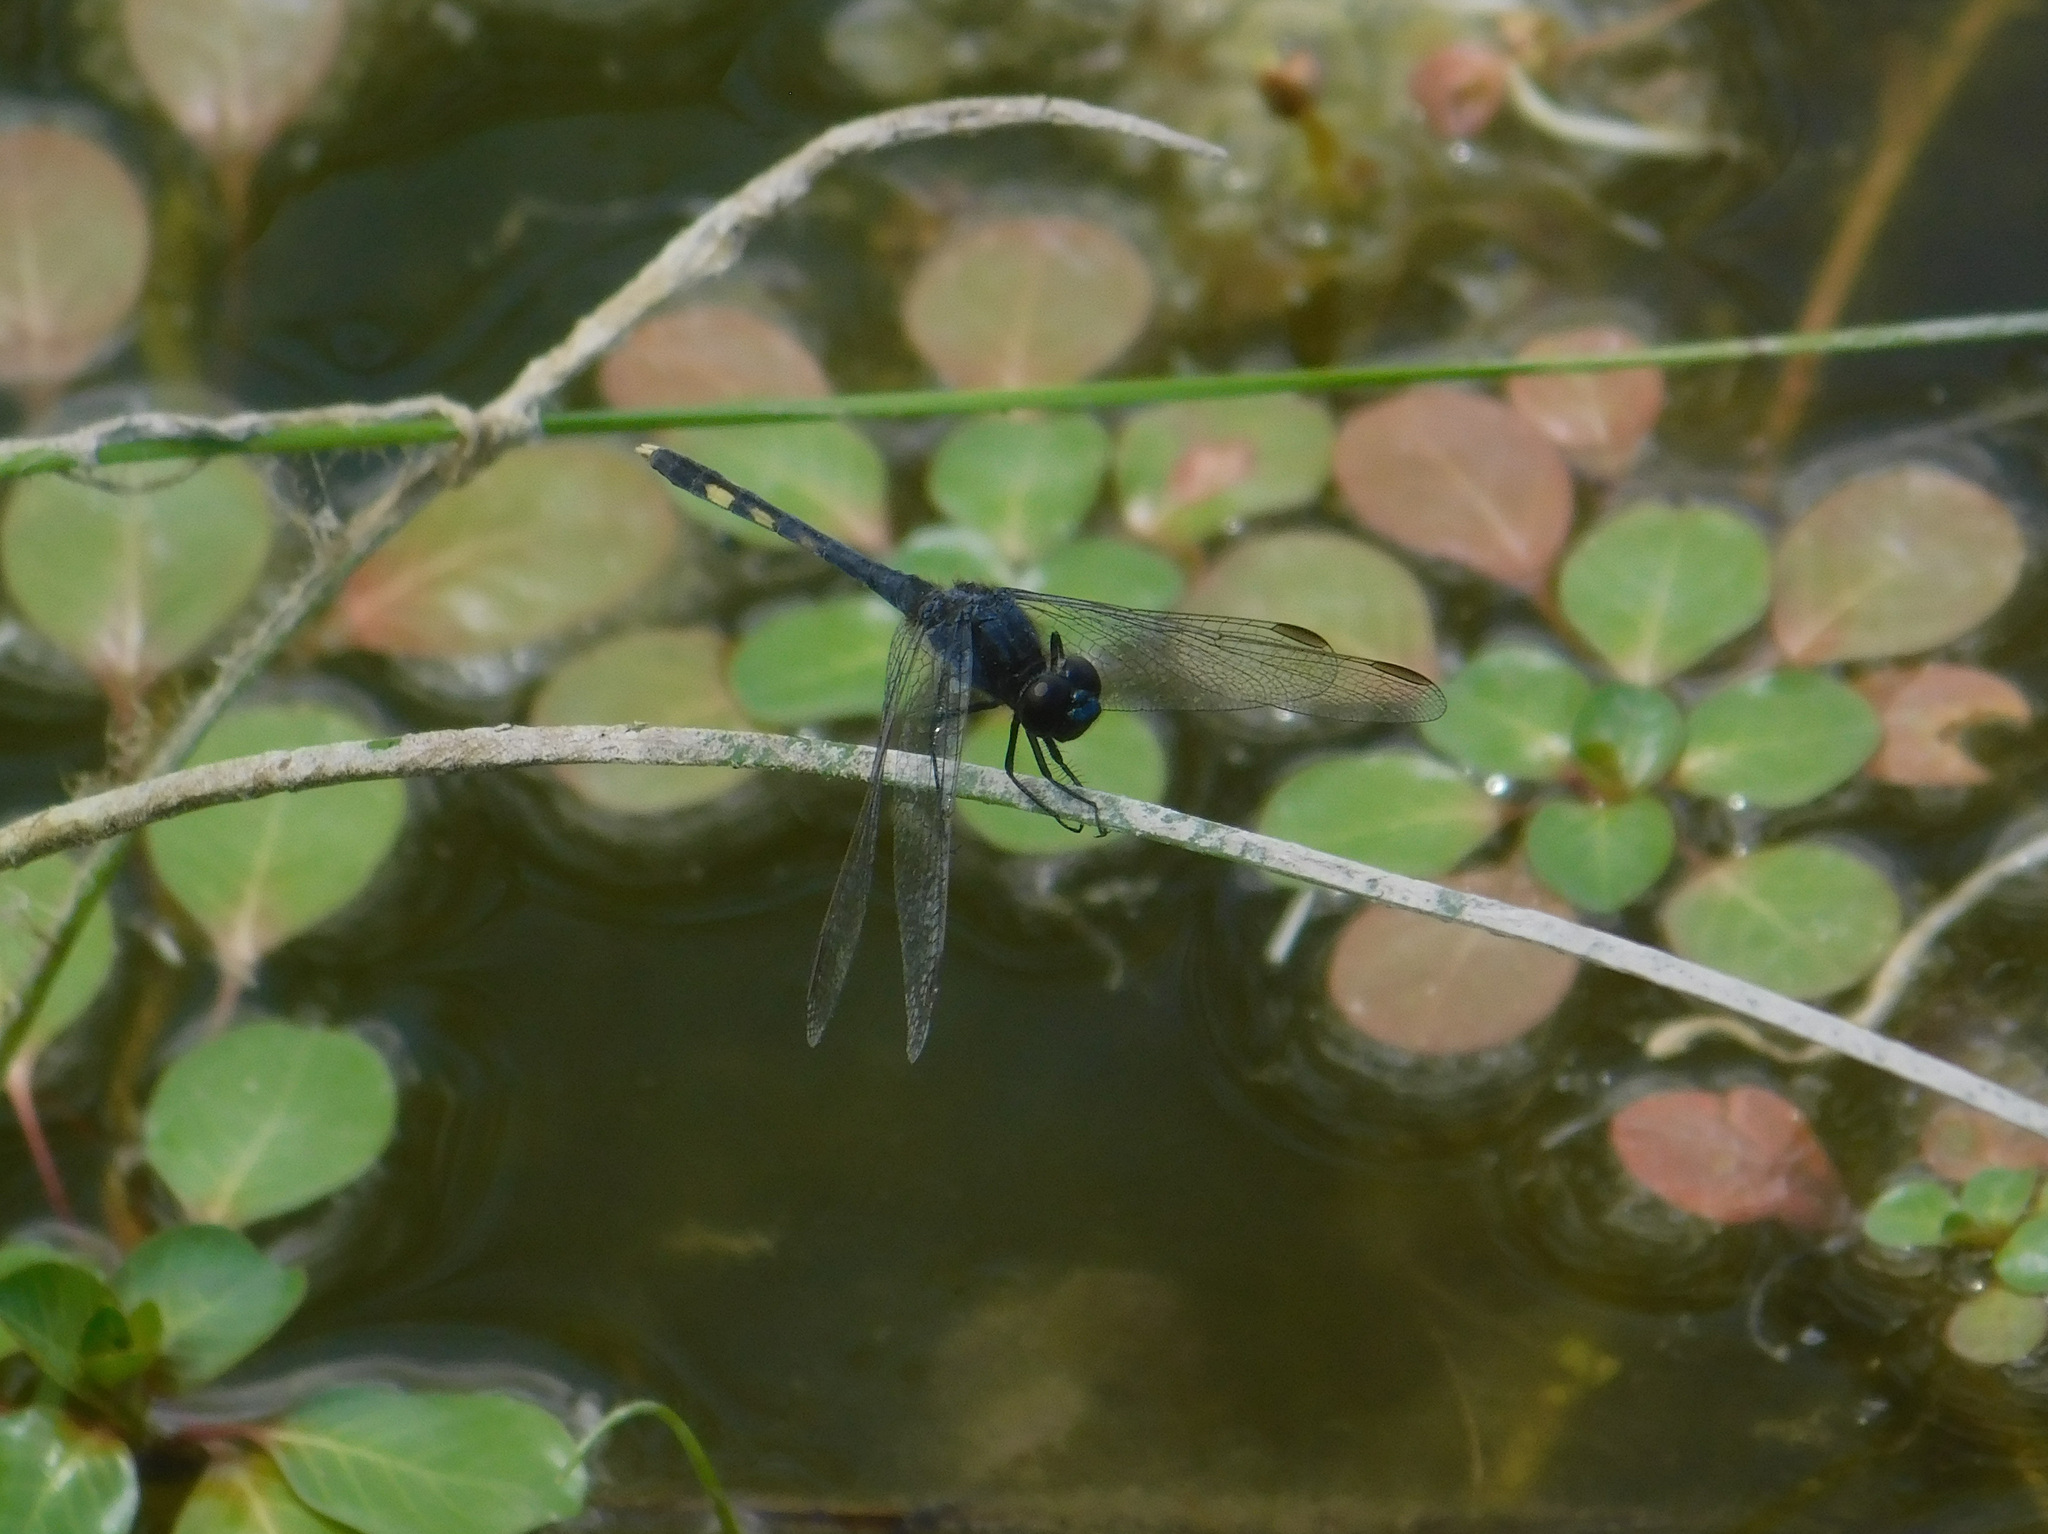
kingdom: Animalia
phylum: Arthropoda
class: Insecta
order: Odonata
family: Libellulidae
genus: Erythrodiplax
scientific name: Erythrodiplax nigricans
